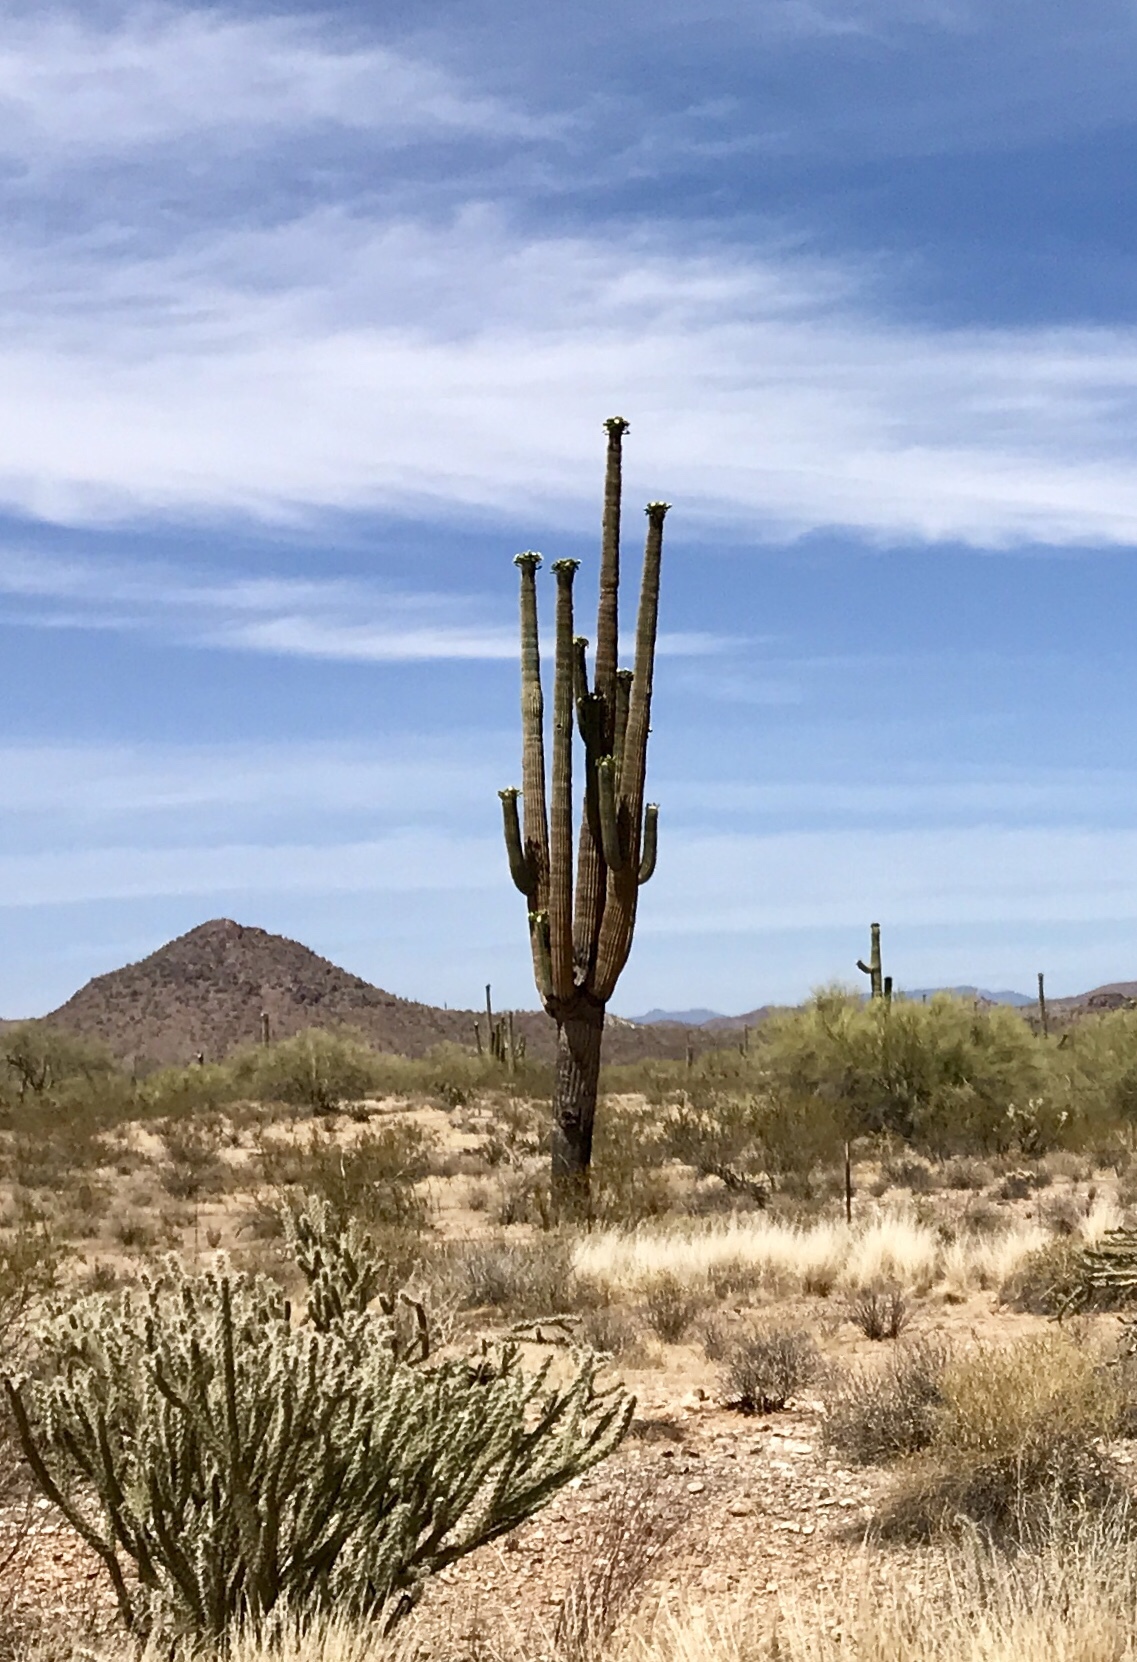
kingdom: Plantae
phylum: Tracheophyta
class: Magnoliopsida
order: Caryophyllales
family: Cactaceae
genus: Carnegiea
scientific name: Carnegiea gigantea
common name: Saguaro
